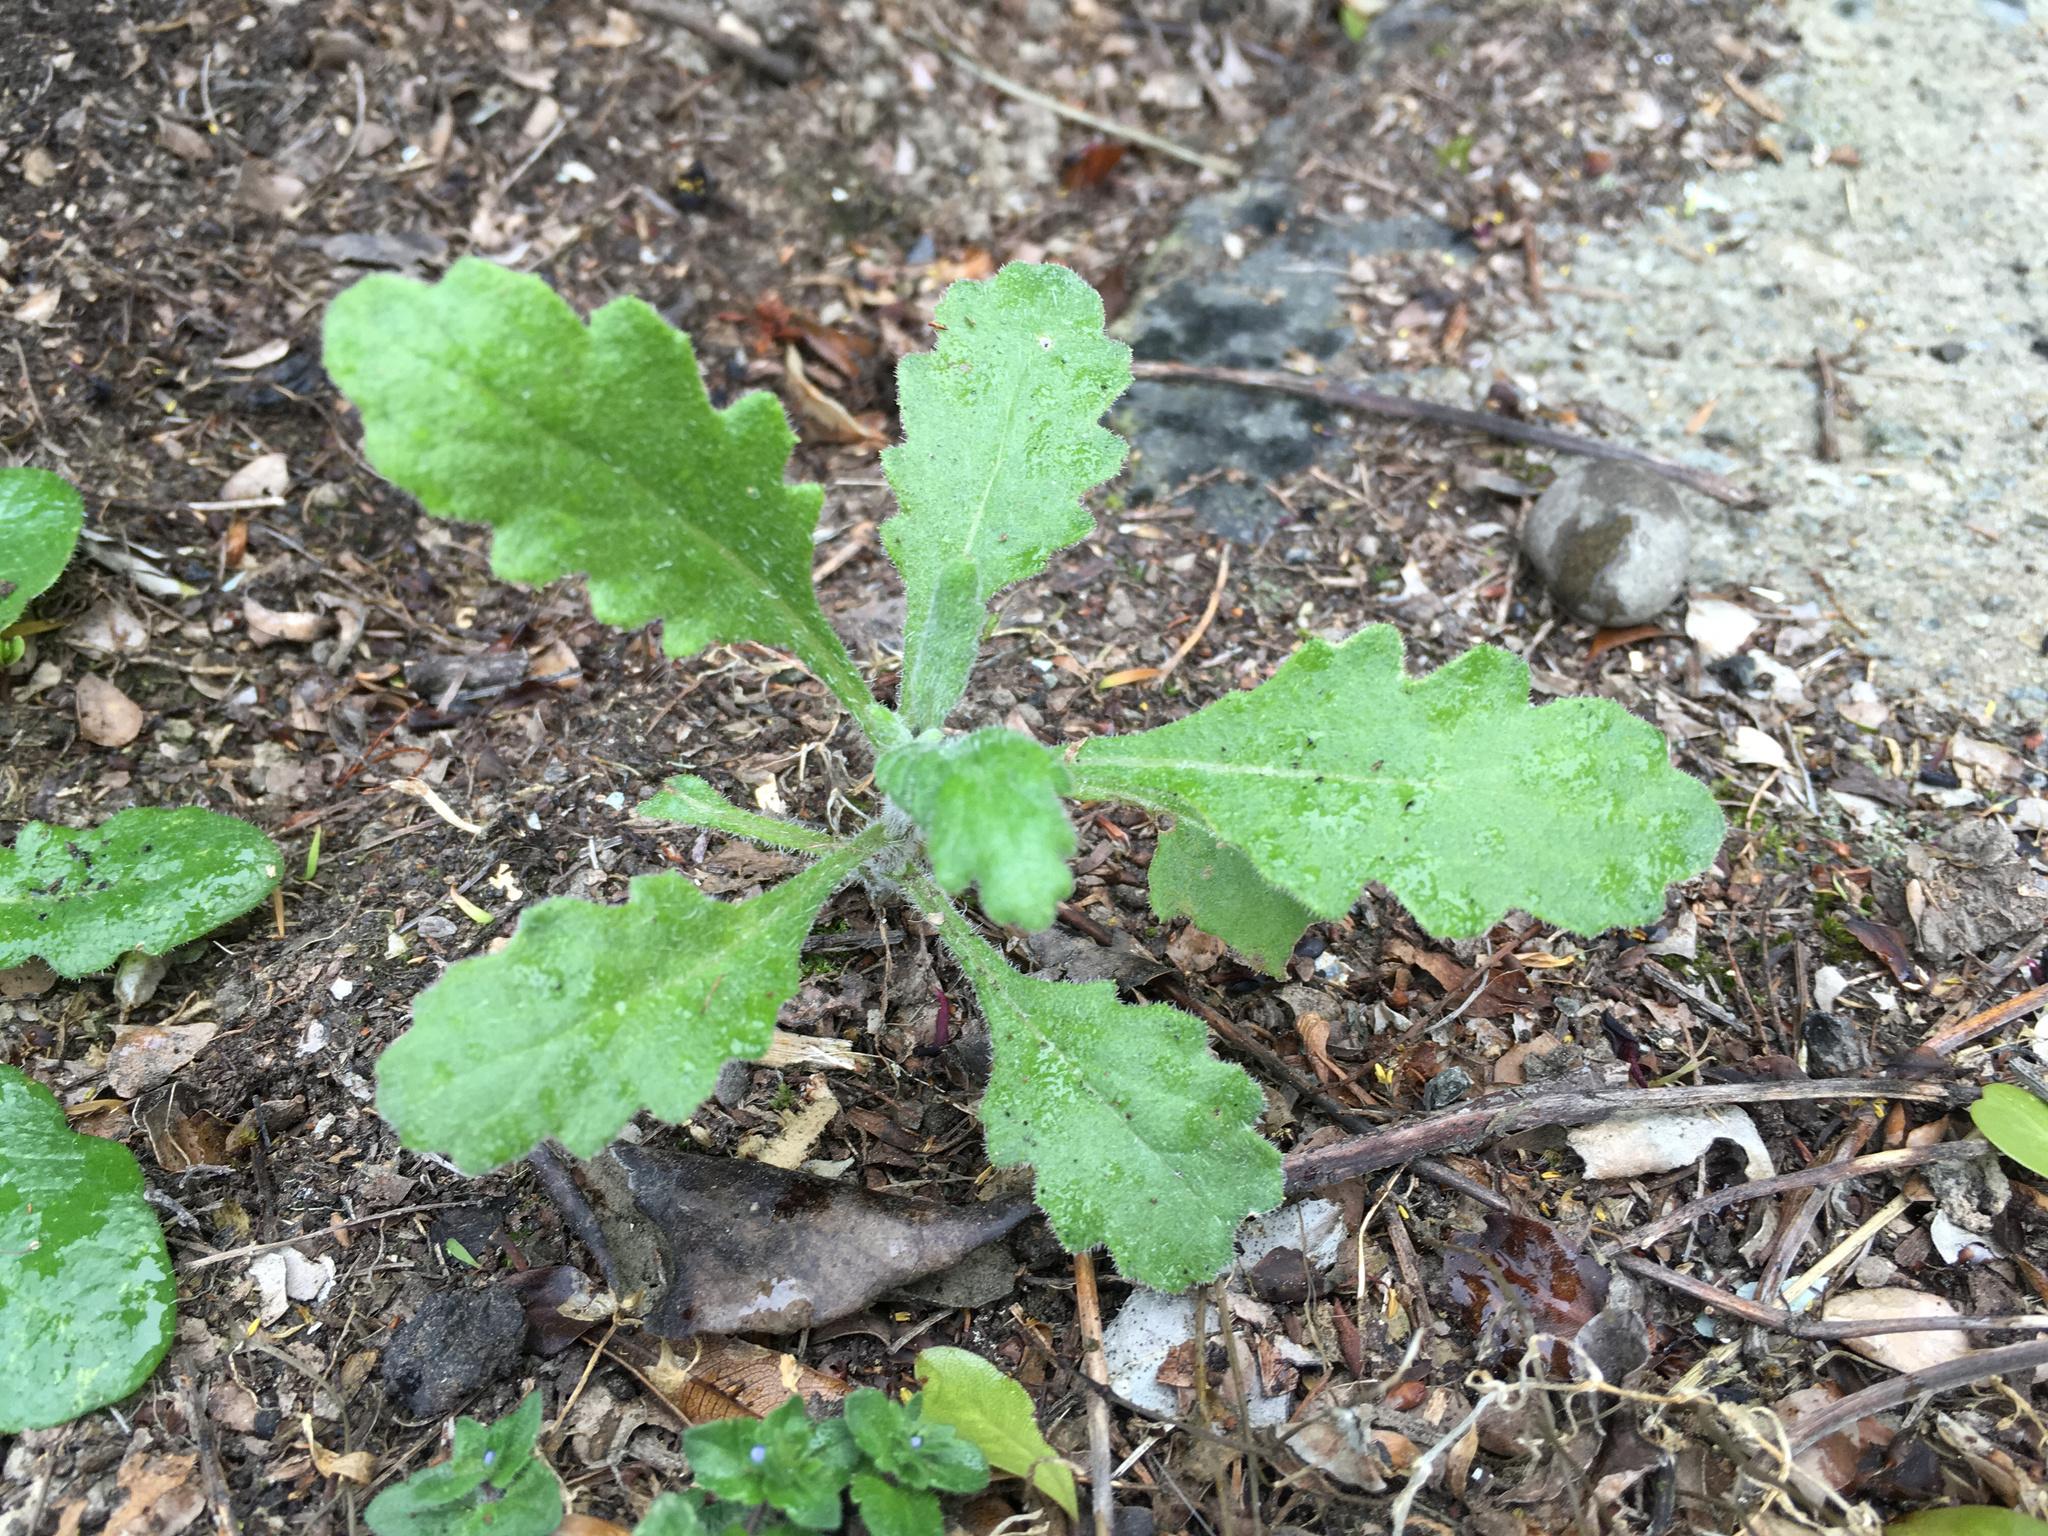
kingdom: Plantae
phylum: Tracheophyta
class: Magnoliopsida
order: Asterales
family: Asteraceae
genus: Senecio
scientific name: Senecio glomeratus
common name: Cutleaf burnweed
